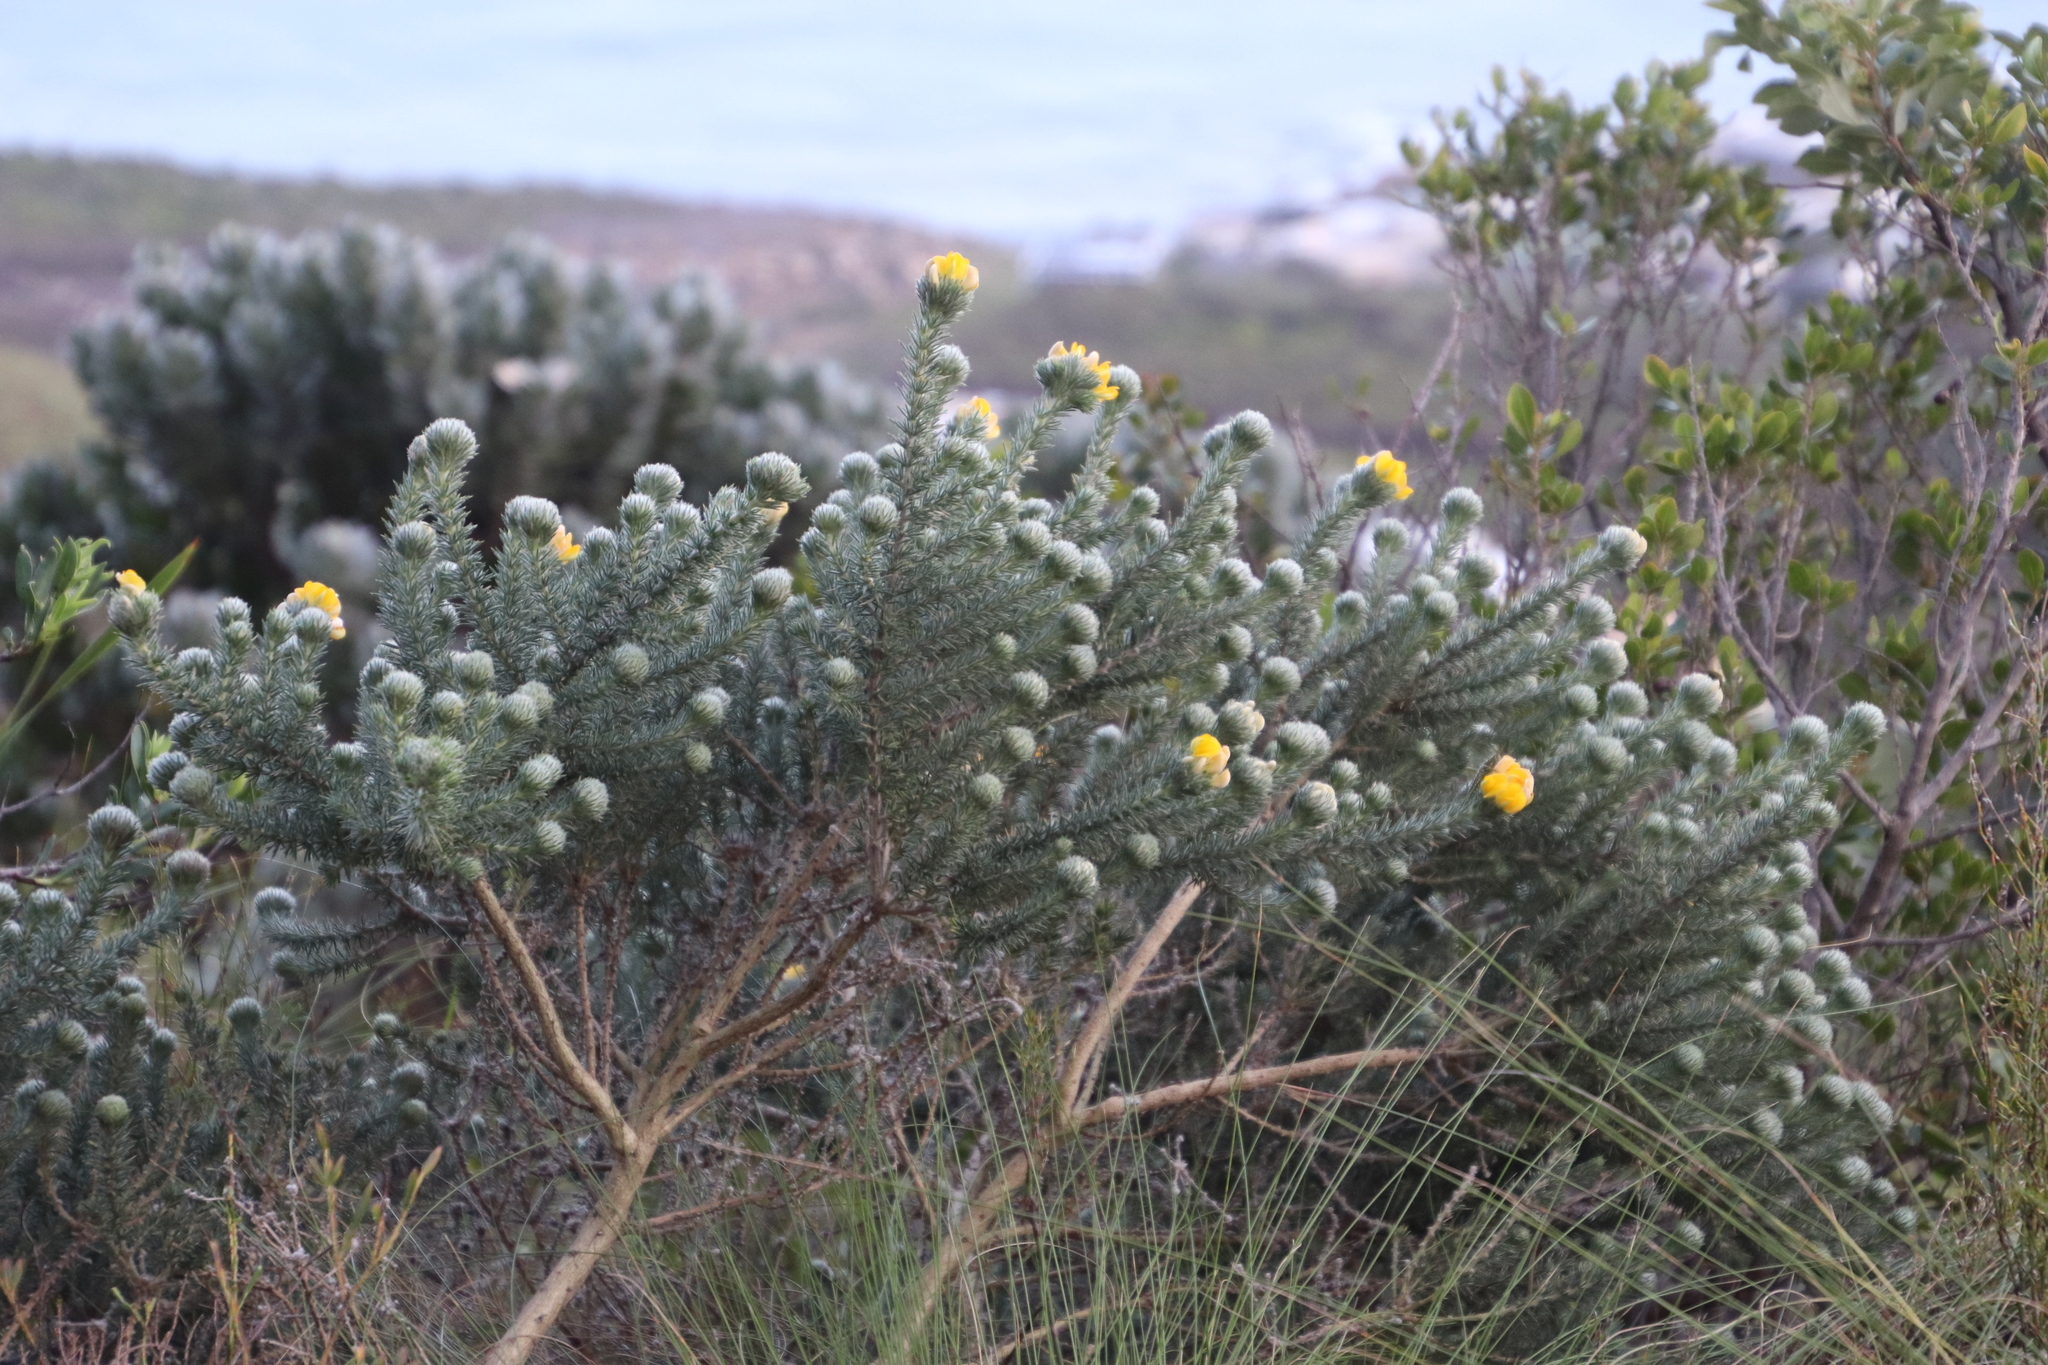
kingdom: Plantae
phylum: Tracheophyta
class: Magnoliopsida
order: Fabales
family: Fabaceae
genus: Aspalathus
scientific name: Aspalathus chenopoda
